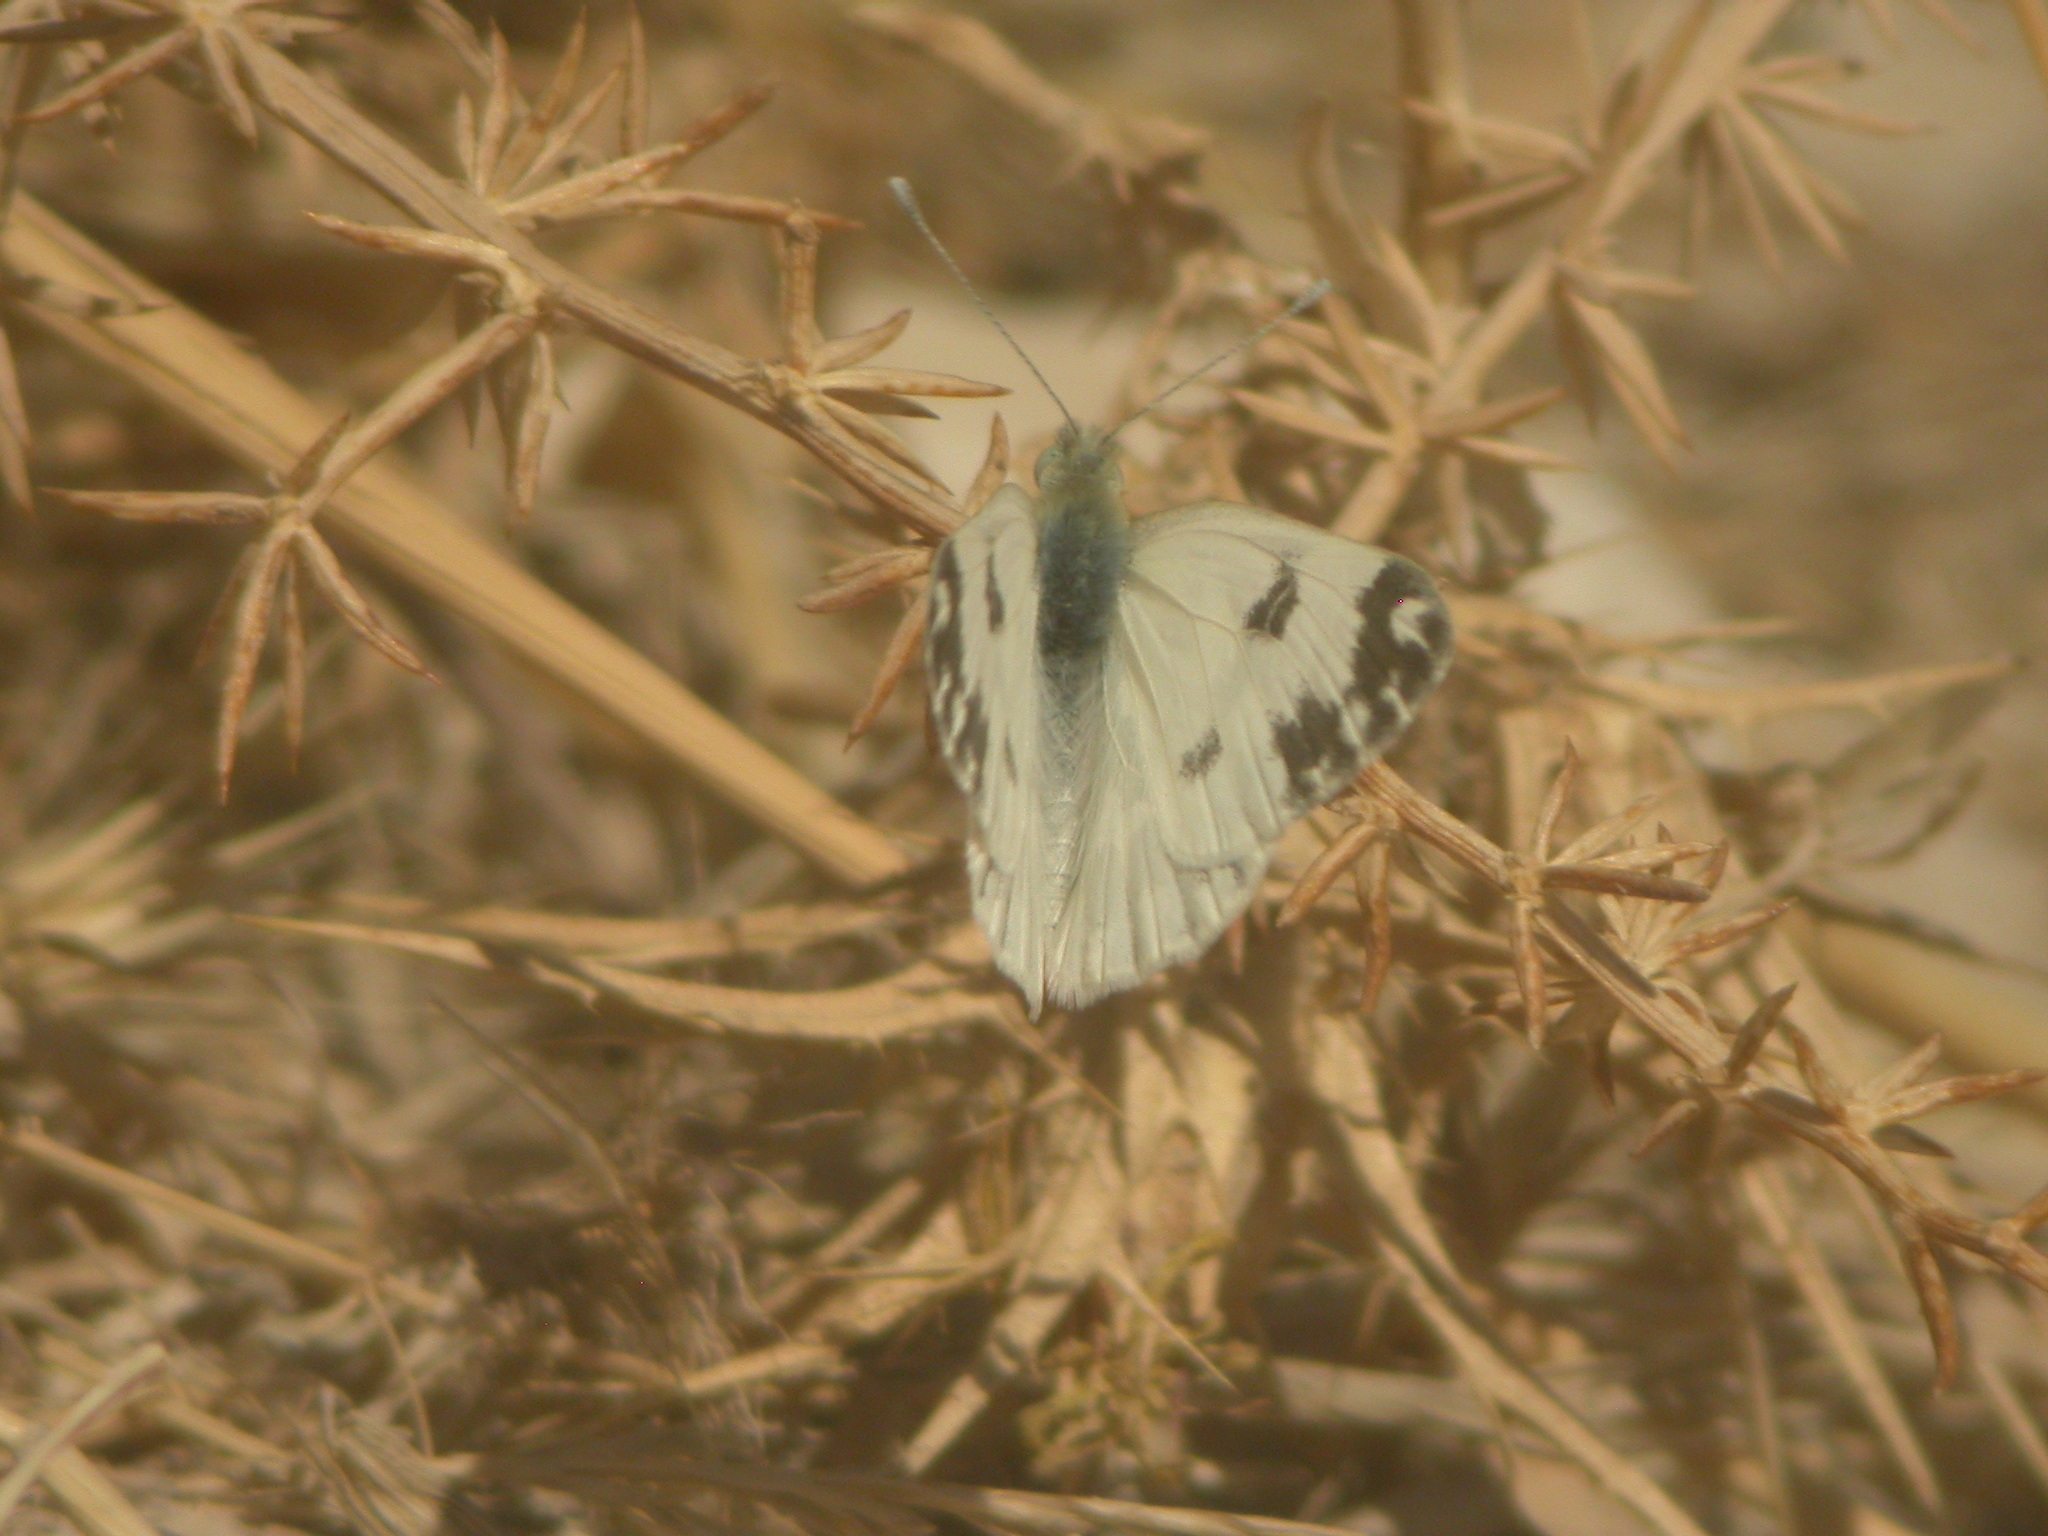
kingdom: Animalia
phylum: Arthropoda
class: Insecta
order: Lepidoptera
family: Pieridae
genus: Pontia
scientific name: Pontia edusa
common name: Eastern bath white
